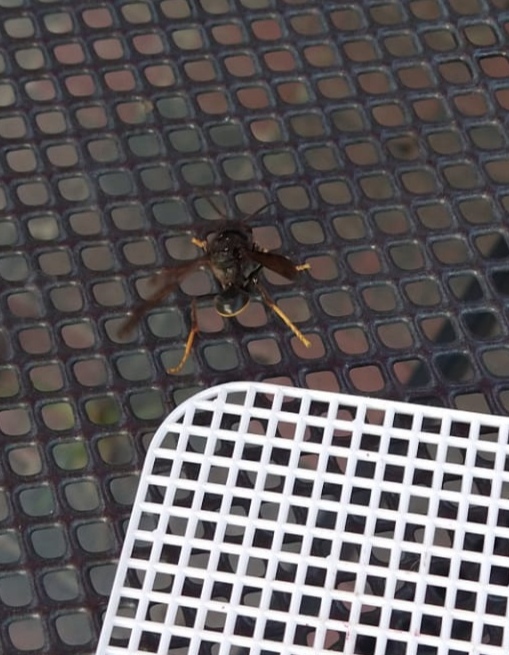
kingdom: Animalia
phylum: Arthropoda
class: Insecta
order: Hymenoptera
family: Vespidae
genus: Vespa
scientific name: Vespa velutina
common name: Asian hornet
